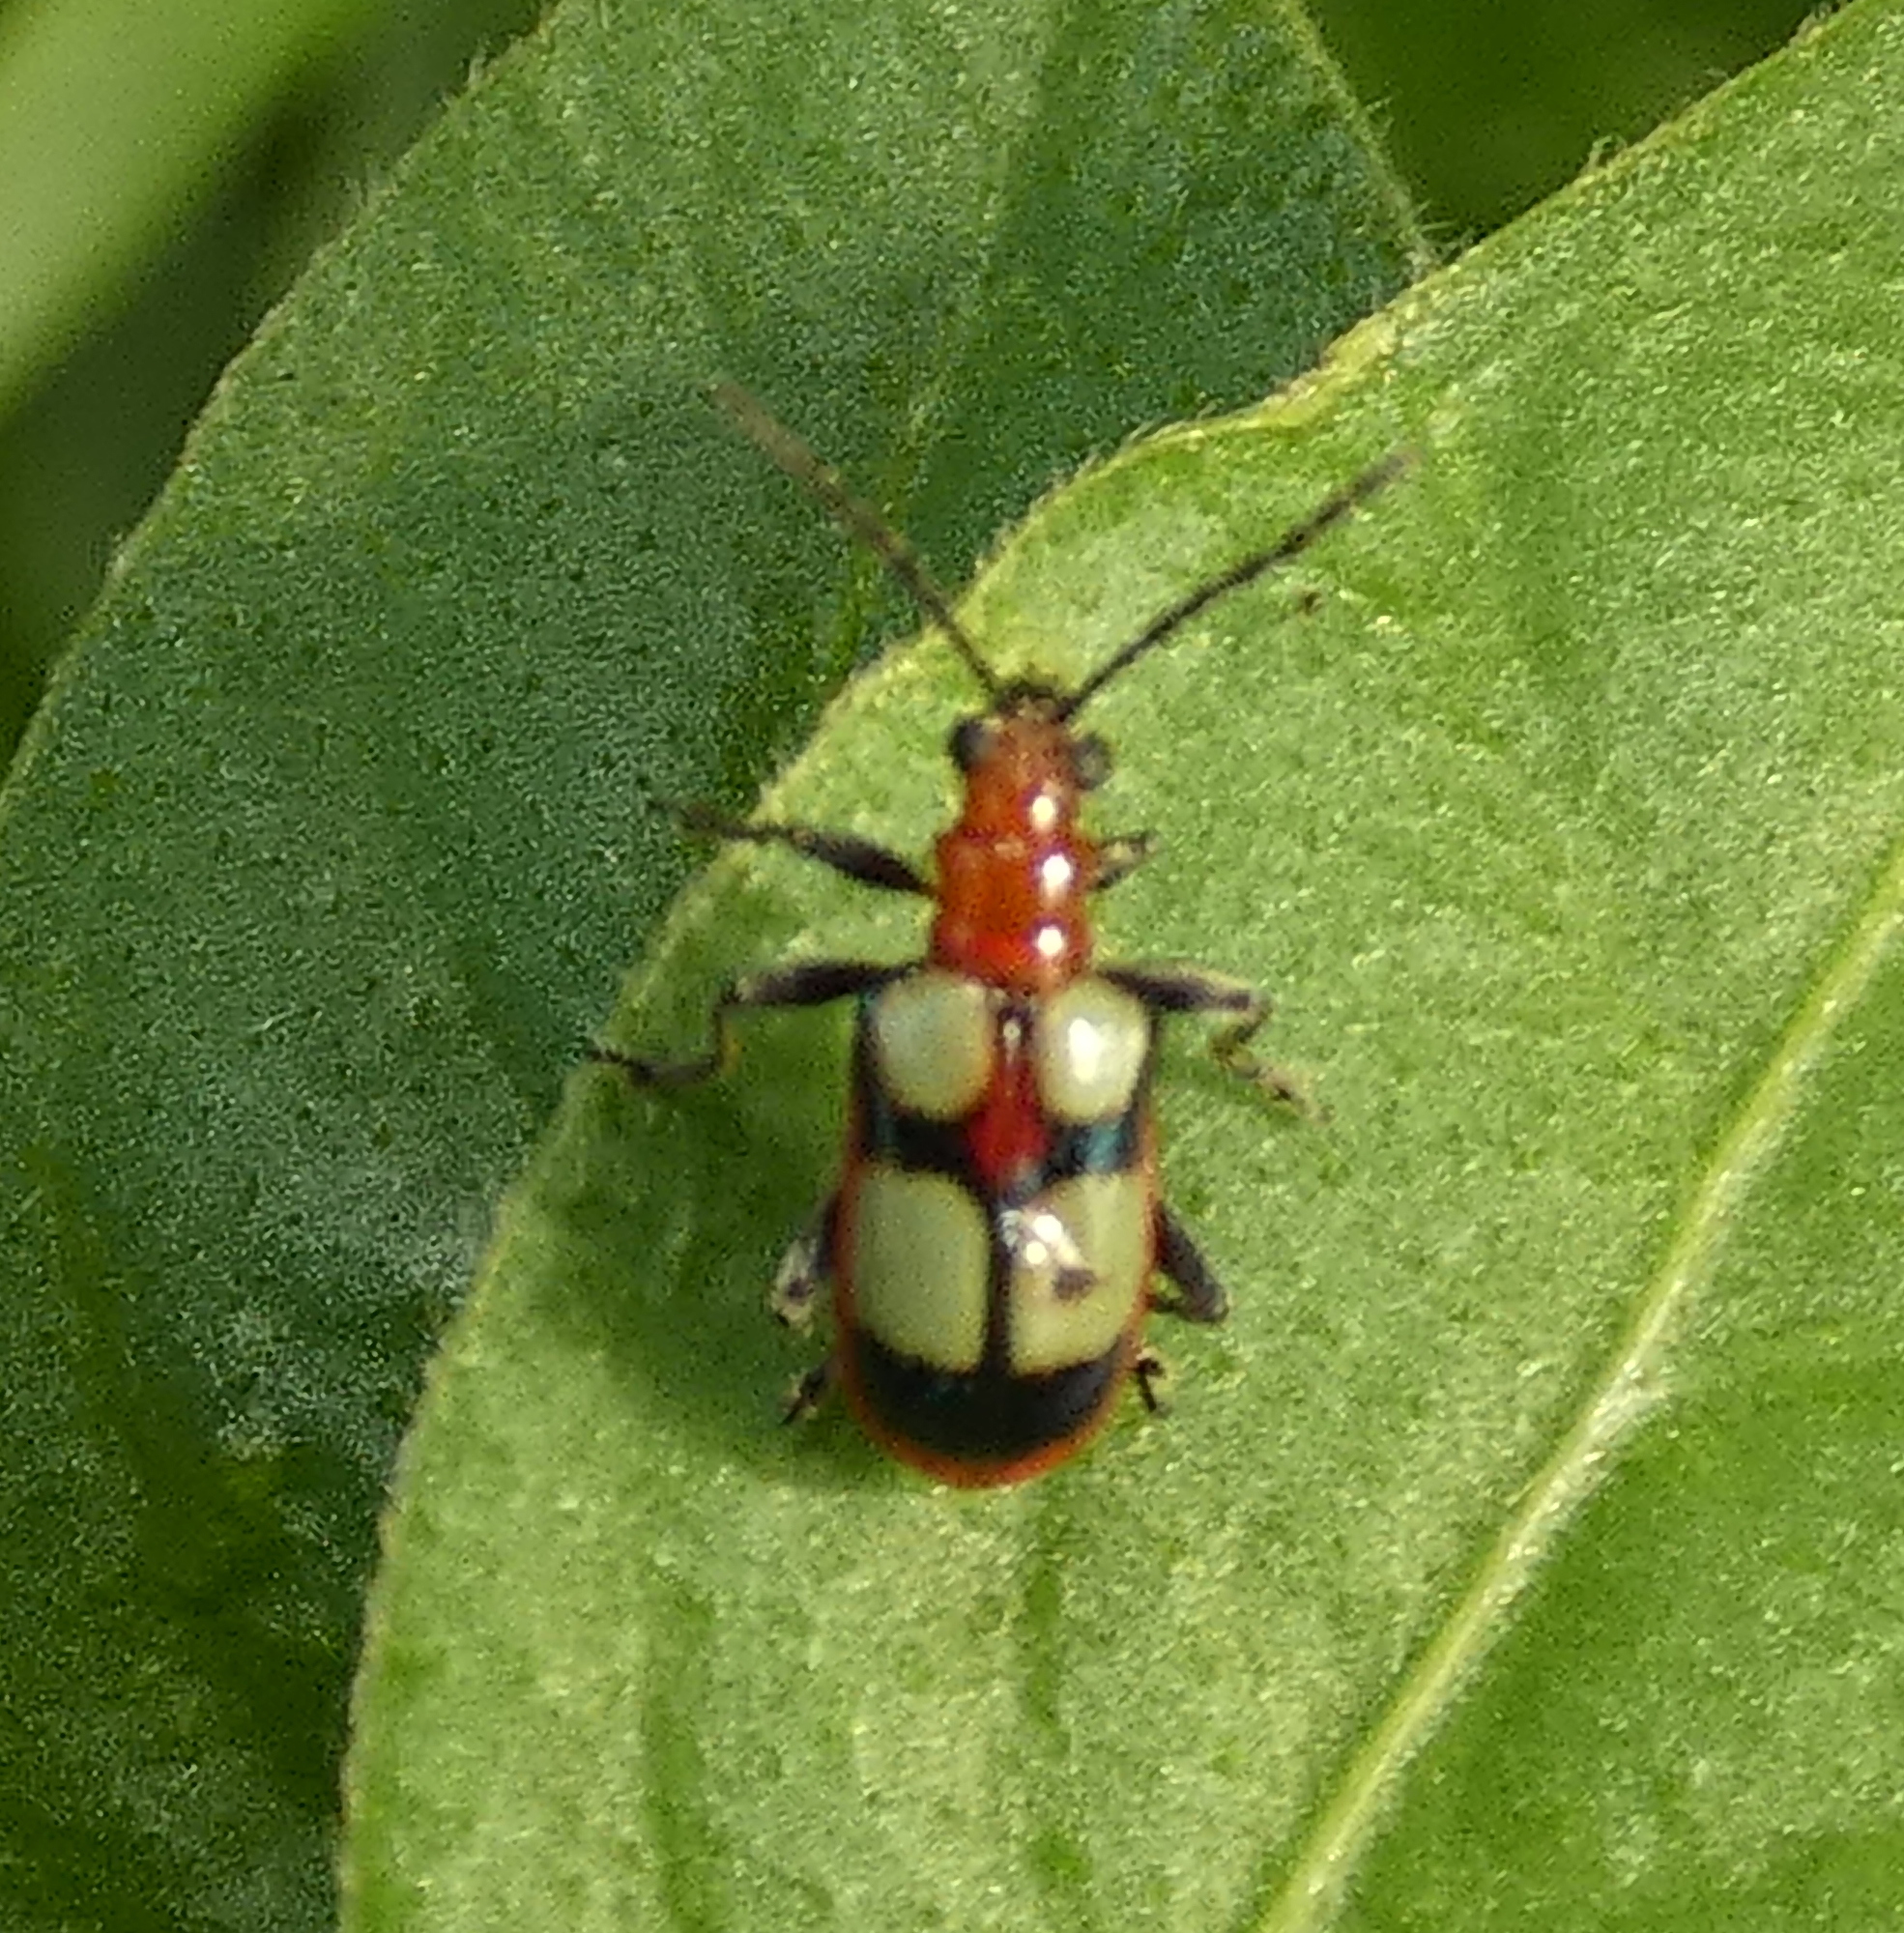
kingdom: Animalia
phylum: Arthropoda
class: Insecta
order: Coleoptera
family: Chrysomelidae
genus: Neolema
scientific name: Neolema
